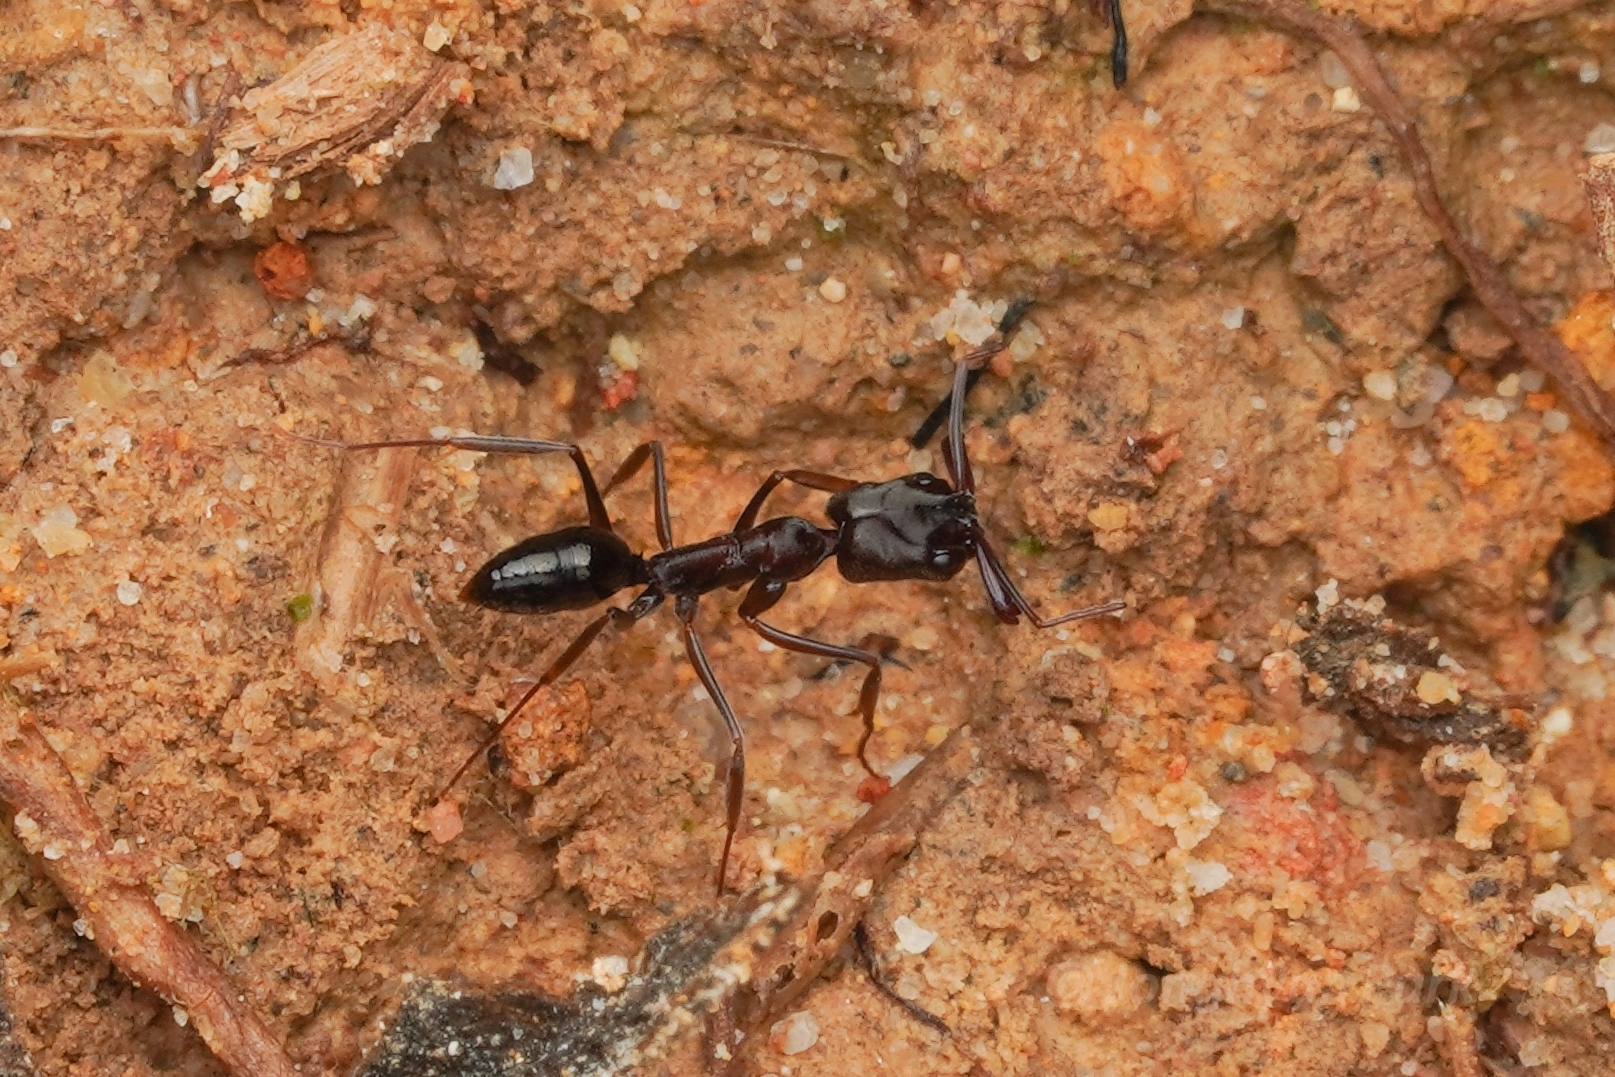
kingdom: Animalia
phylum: Arthropoda
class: Insecta
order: Hymenoptera
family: Formicidae
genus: Odontomachus
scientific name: Odontomachus simillimus
